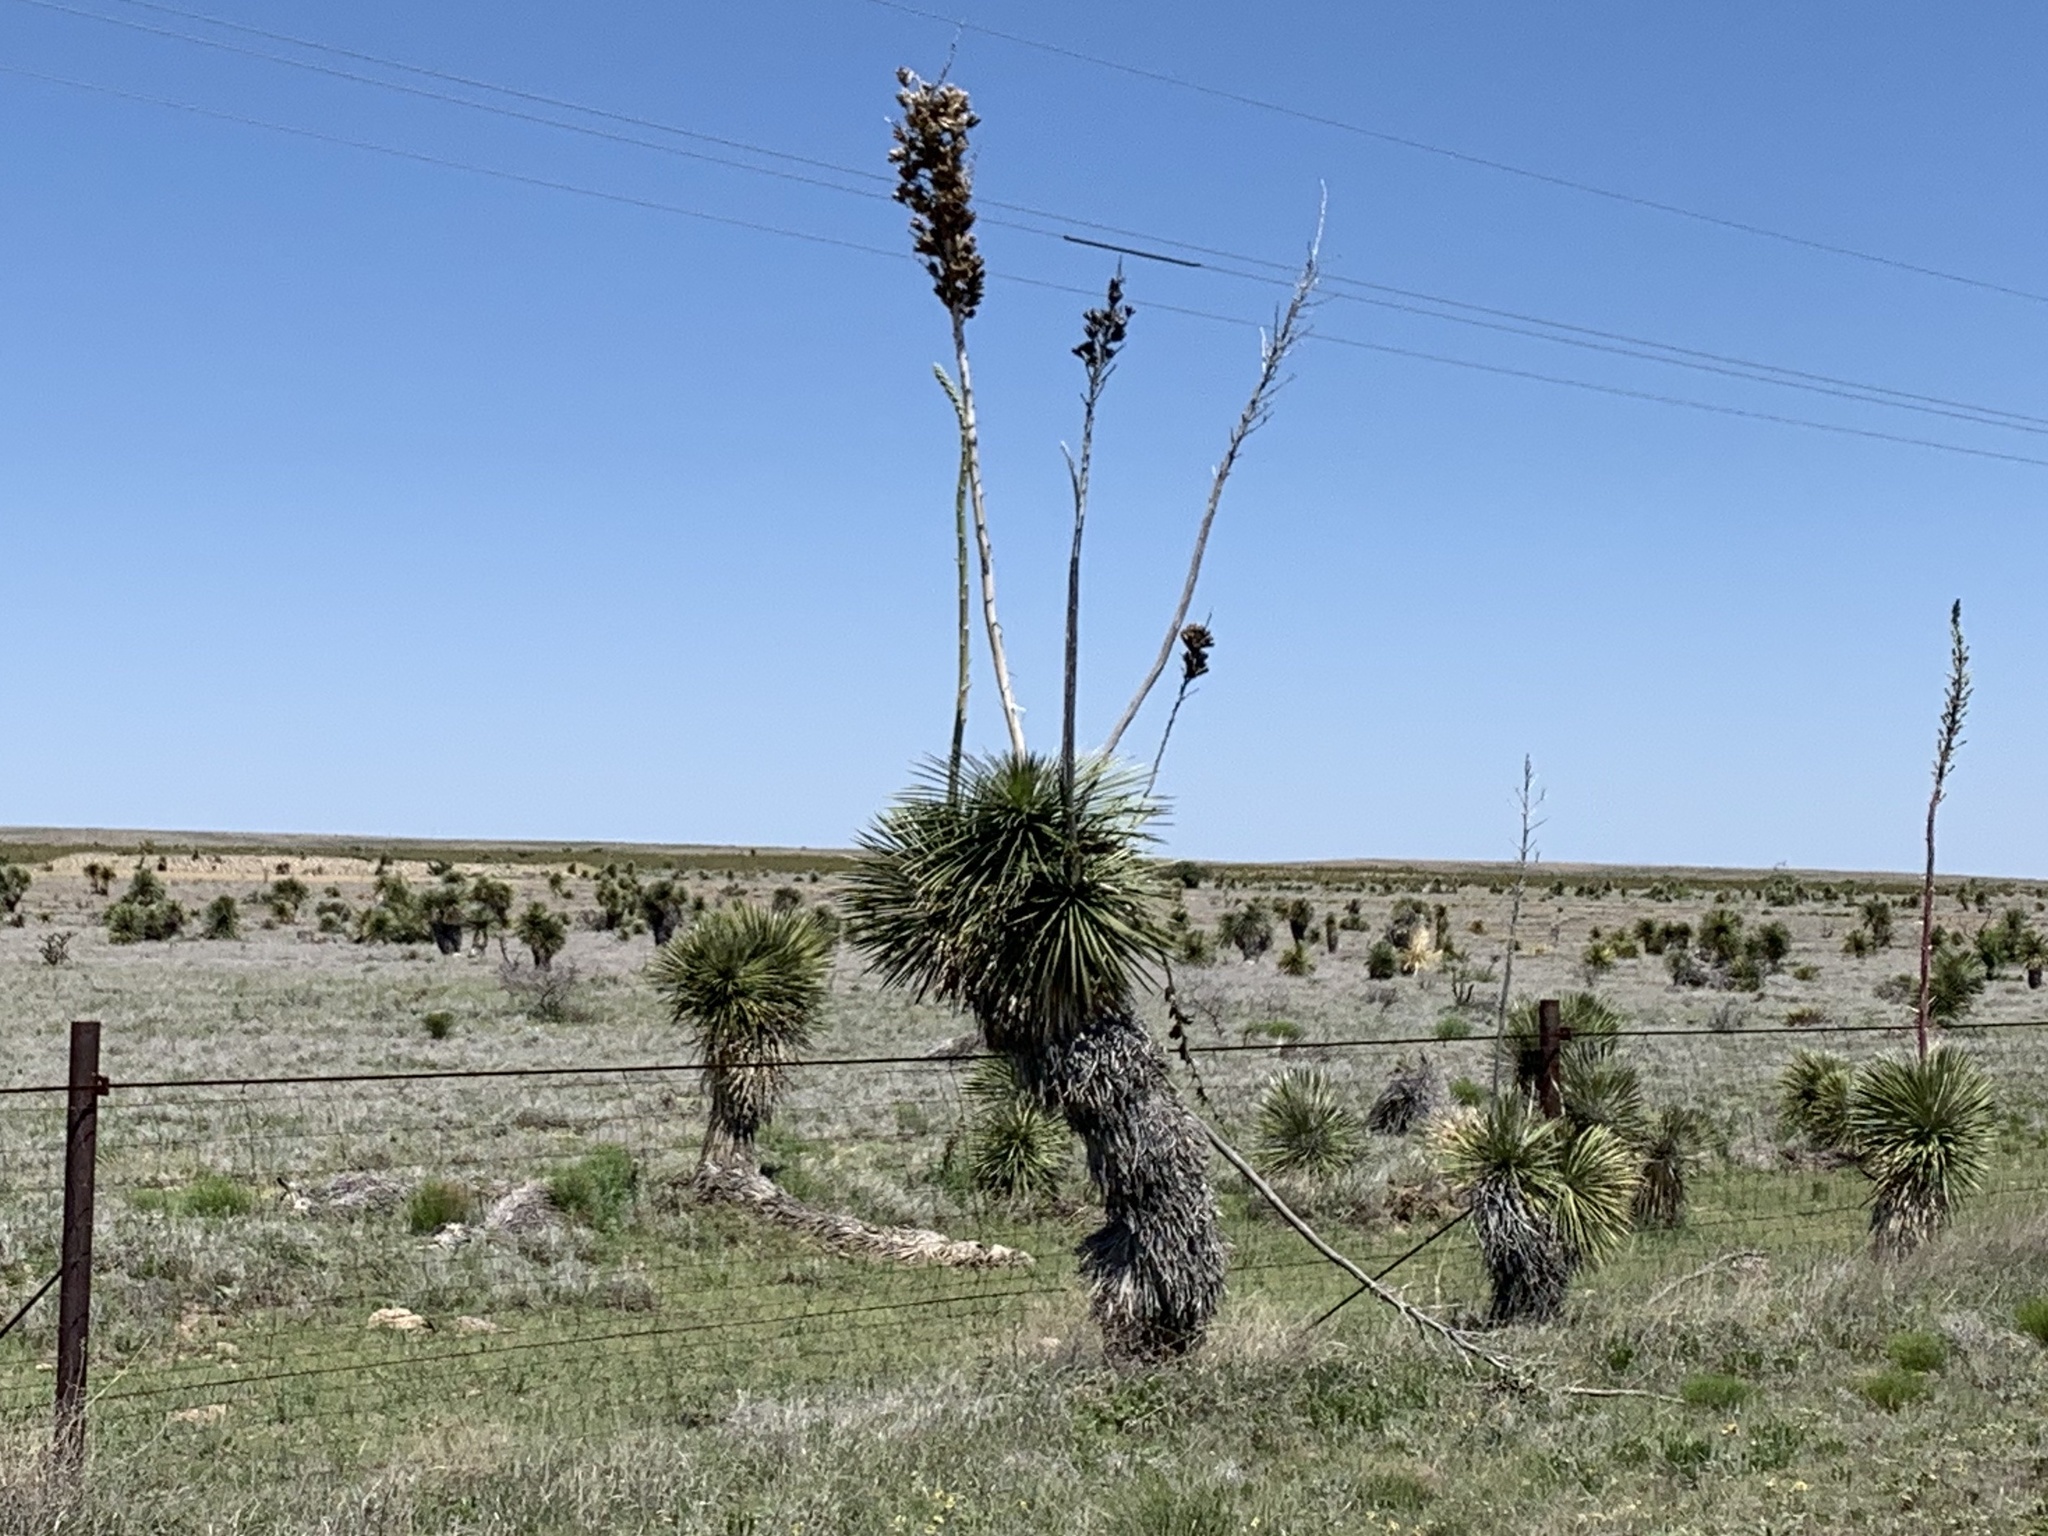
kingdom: Plantae
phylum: Tracheophyta
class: Liliopsida
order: Asparagales
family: Asparagaceae
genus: Yucca
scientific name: Yucca elata
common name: Palmella
